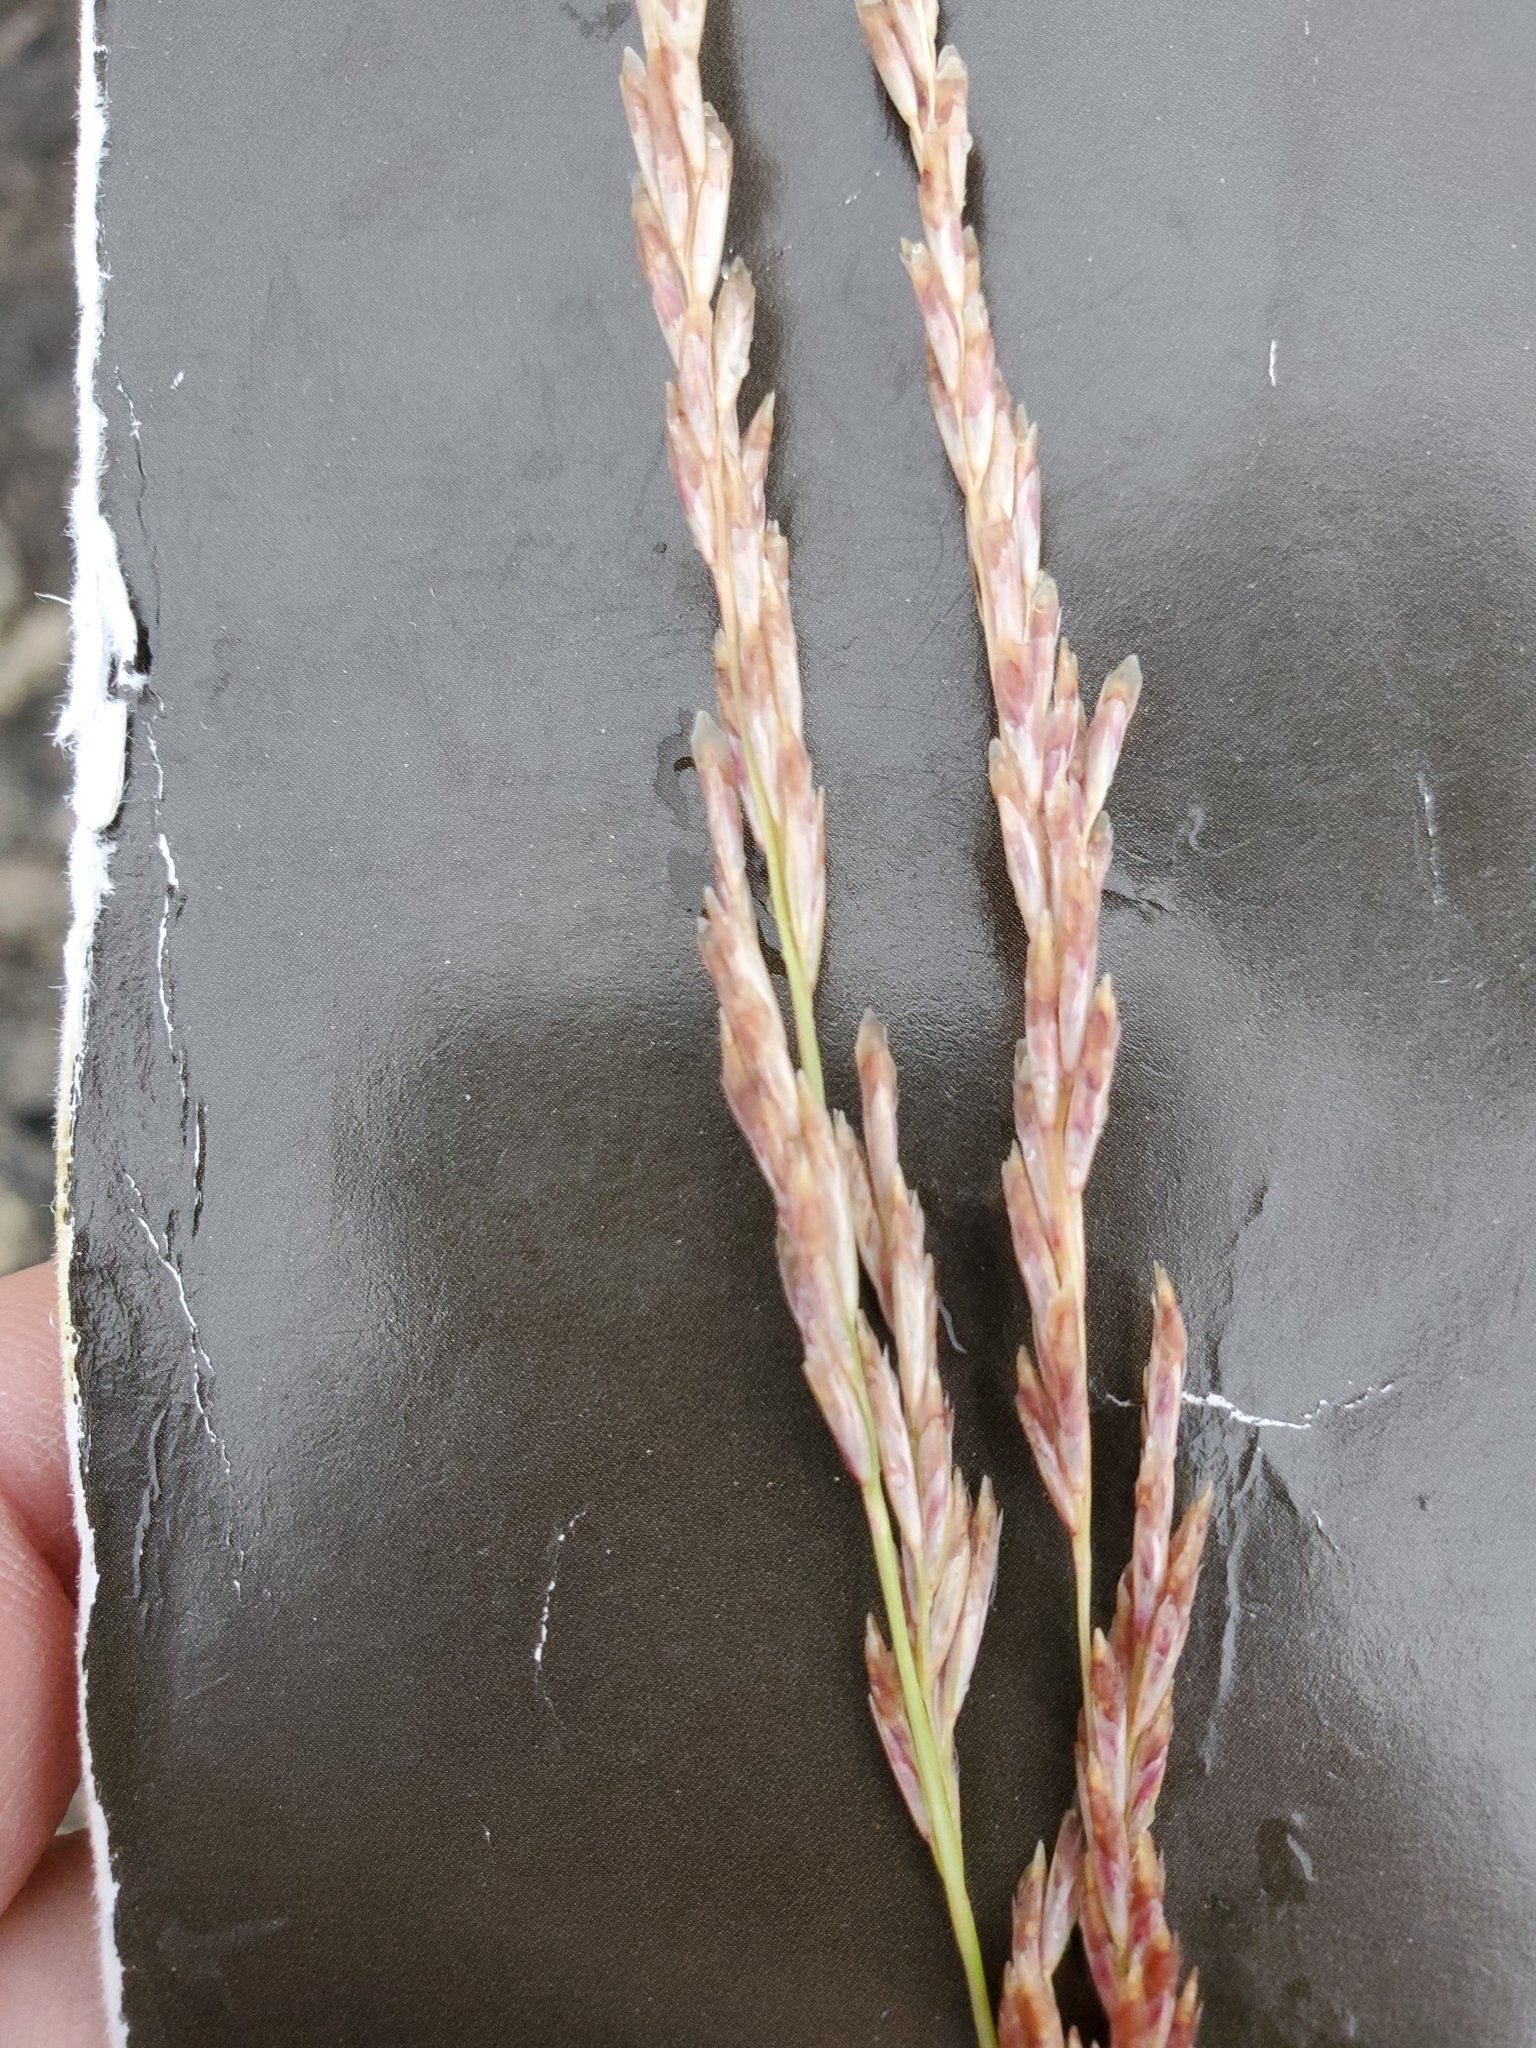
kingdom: Plantae
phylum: Tracheophyta
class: Liliopsida
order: Poales
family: Poaceae
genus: Tridentopsis
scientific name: Tridentopsis mutica
